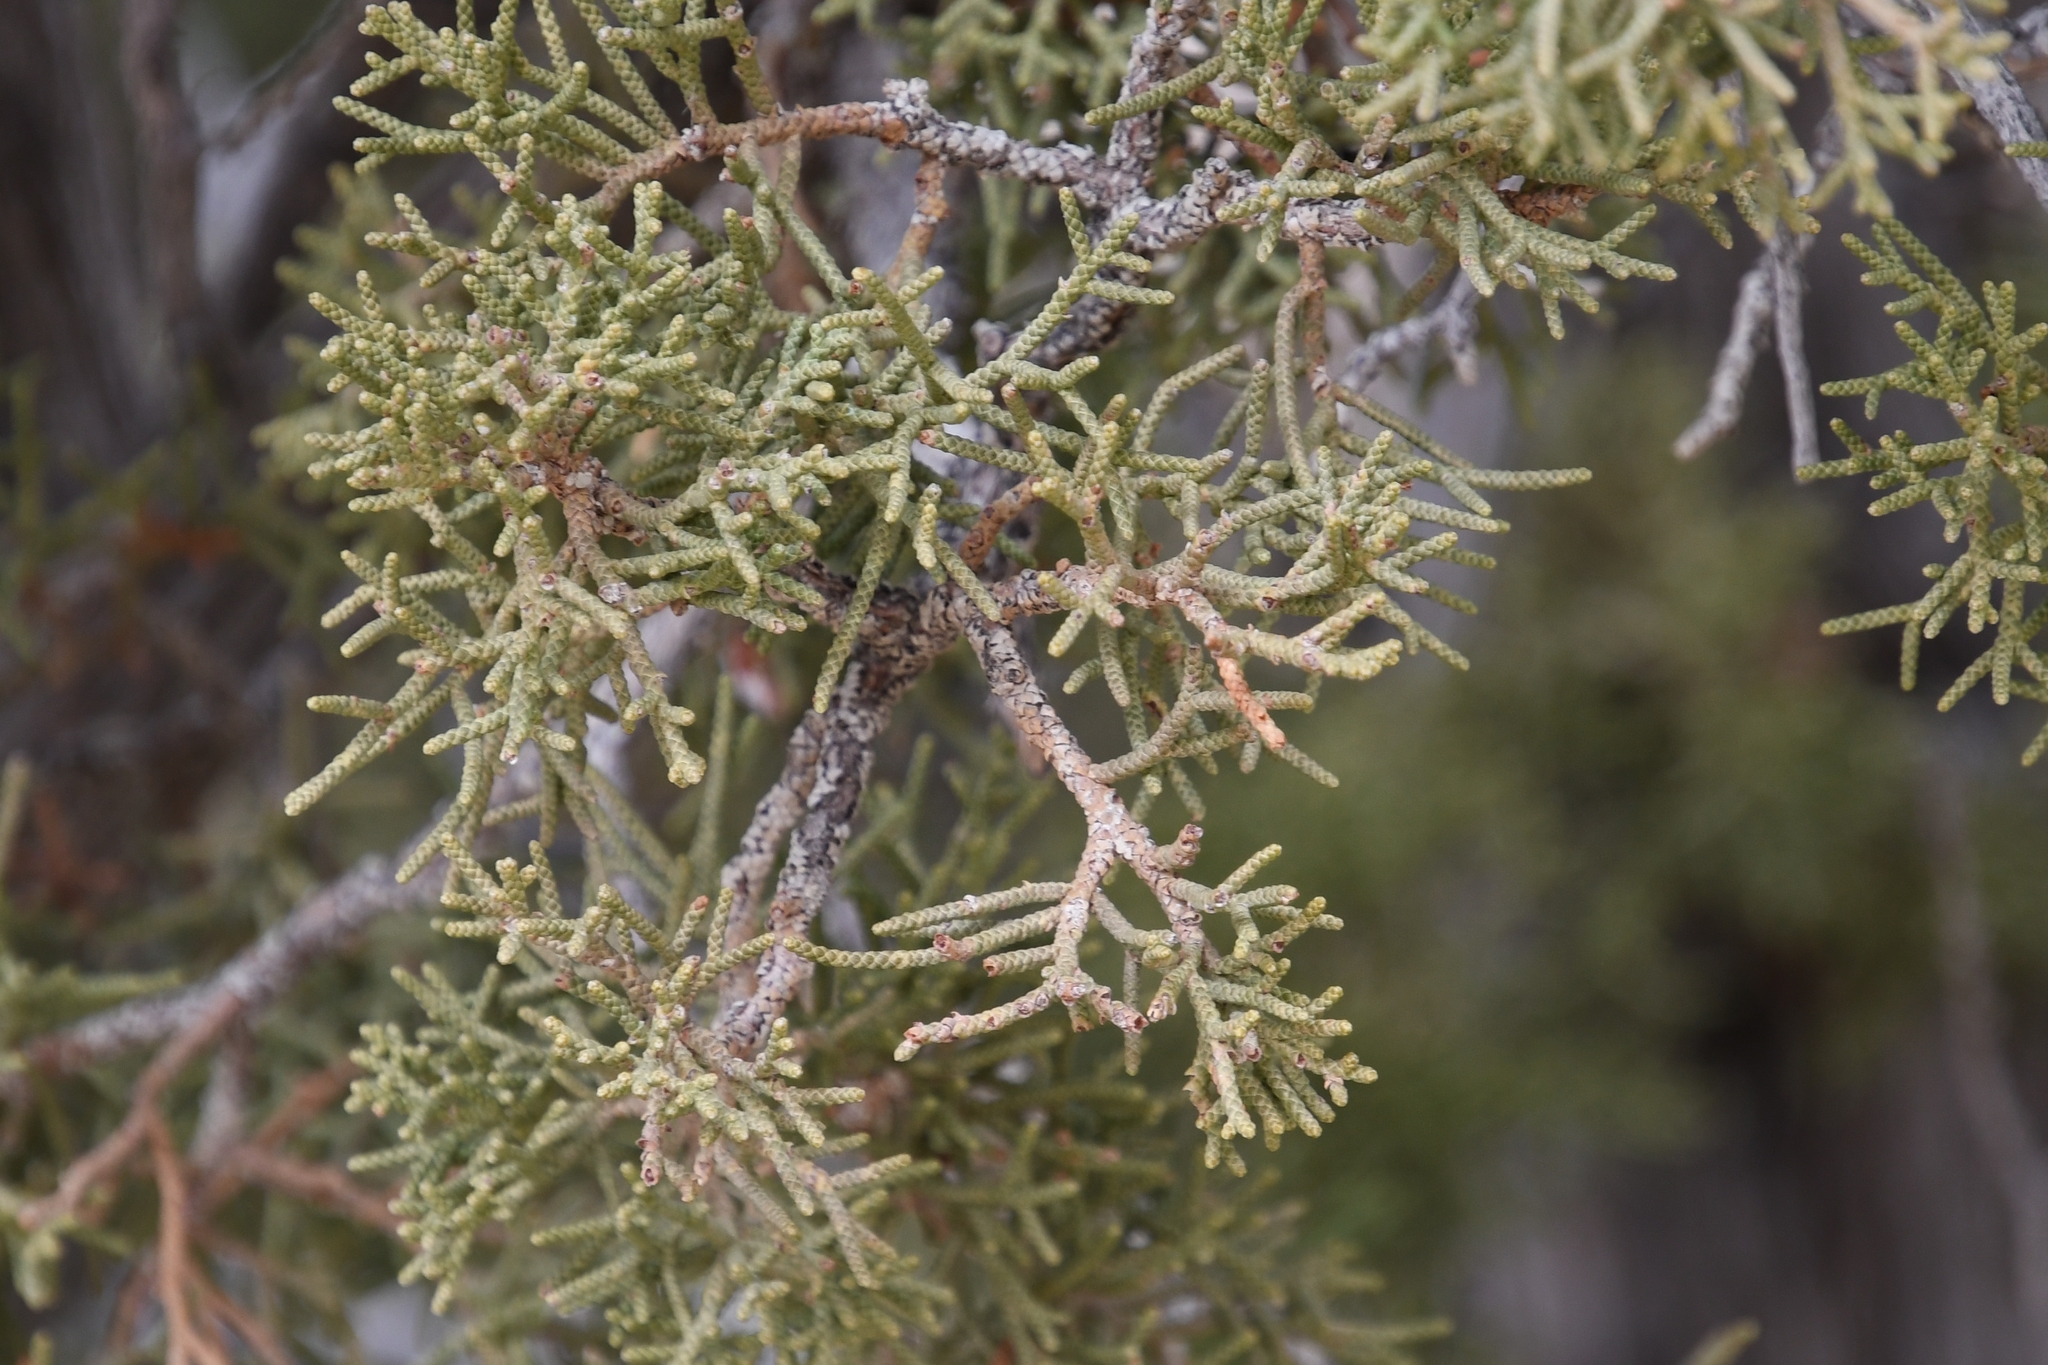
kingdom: Plantae
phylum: Tracheophyta
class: Pinopsida
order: Pinales
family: Cupressaceae
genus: Juniperus
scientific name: Juniperus californica
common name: California juniper
